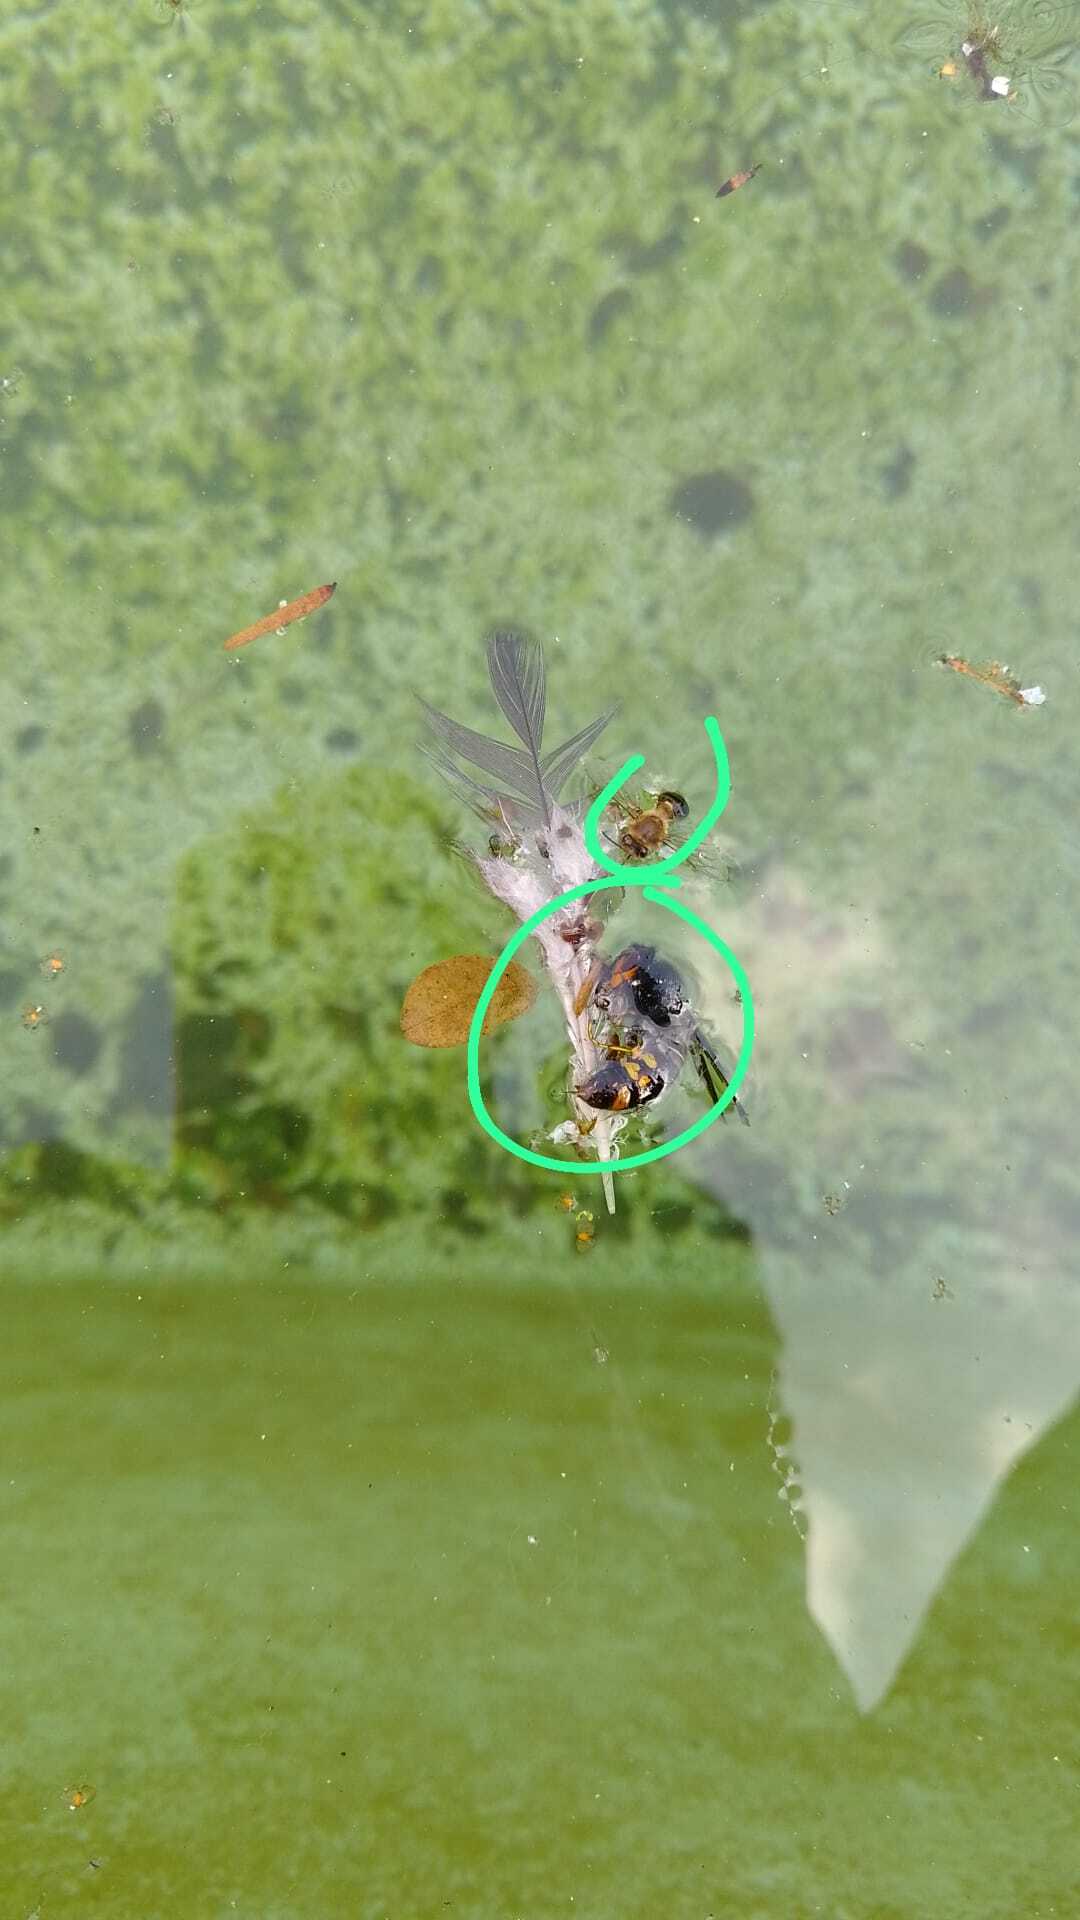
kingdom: Animalia
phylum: Arthropoda
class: Insecta
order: Hymenoptera
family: Vespidae
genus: Vespa
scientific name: Vespa velutina
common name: Asian hornet
